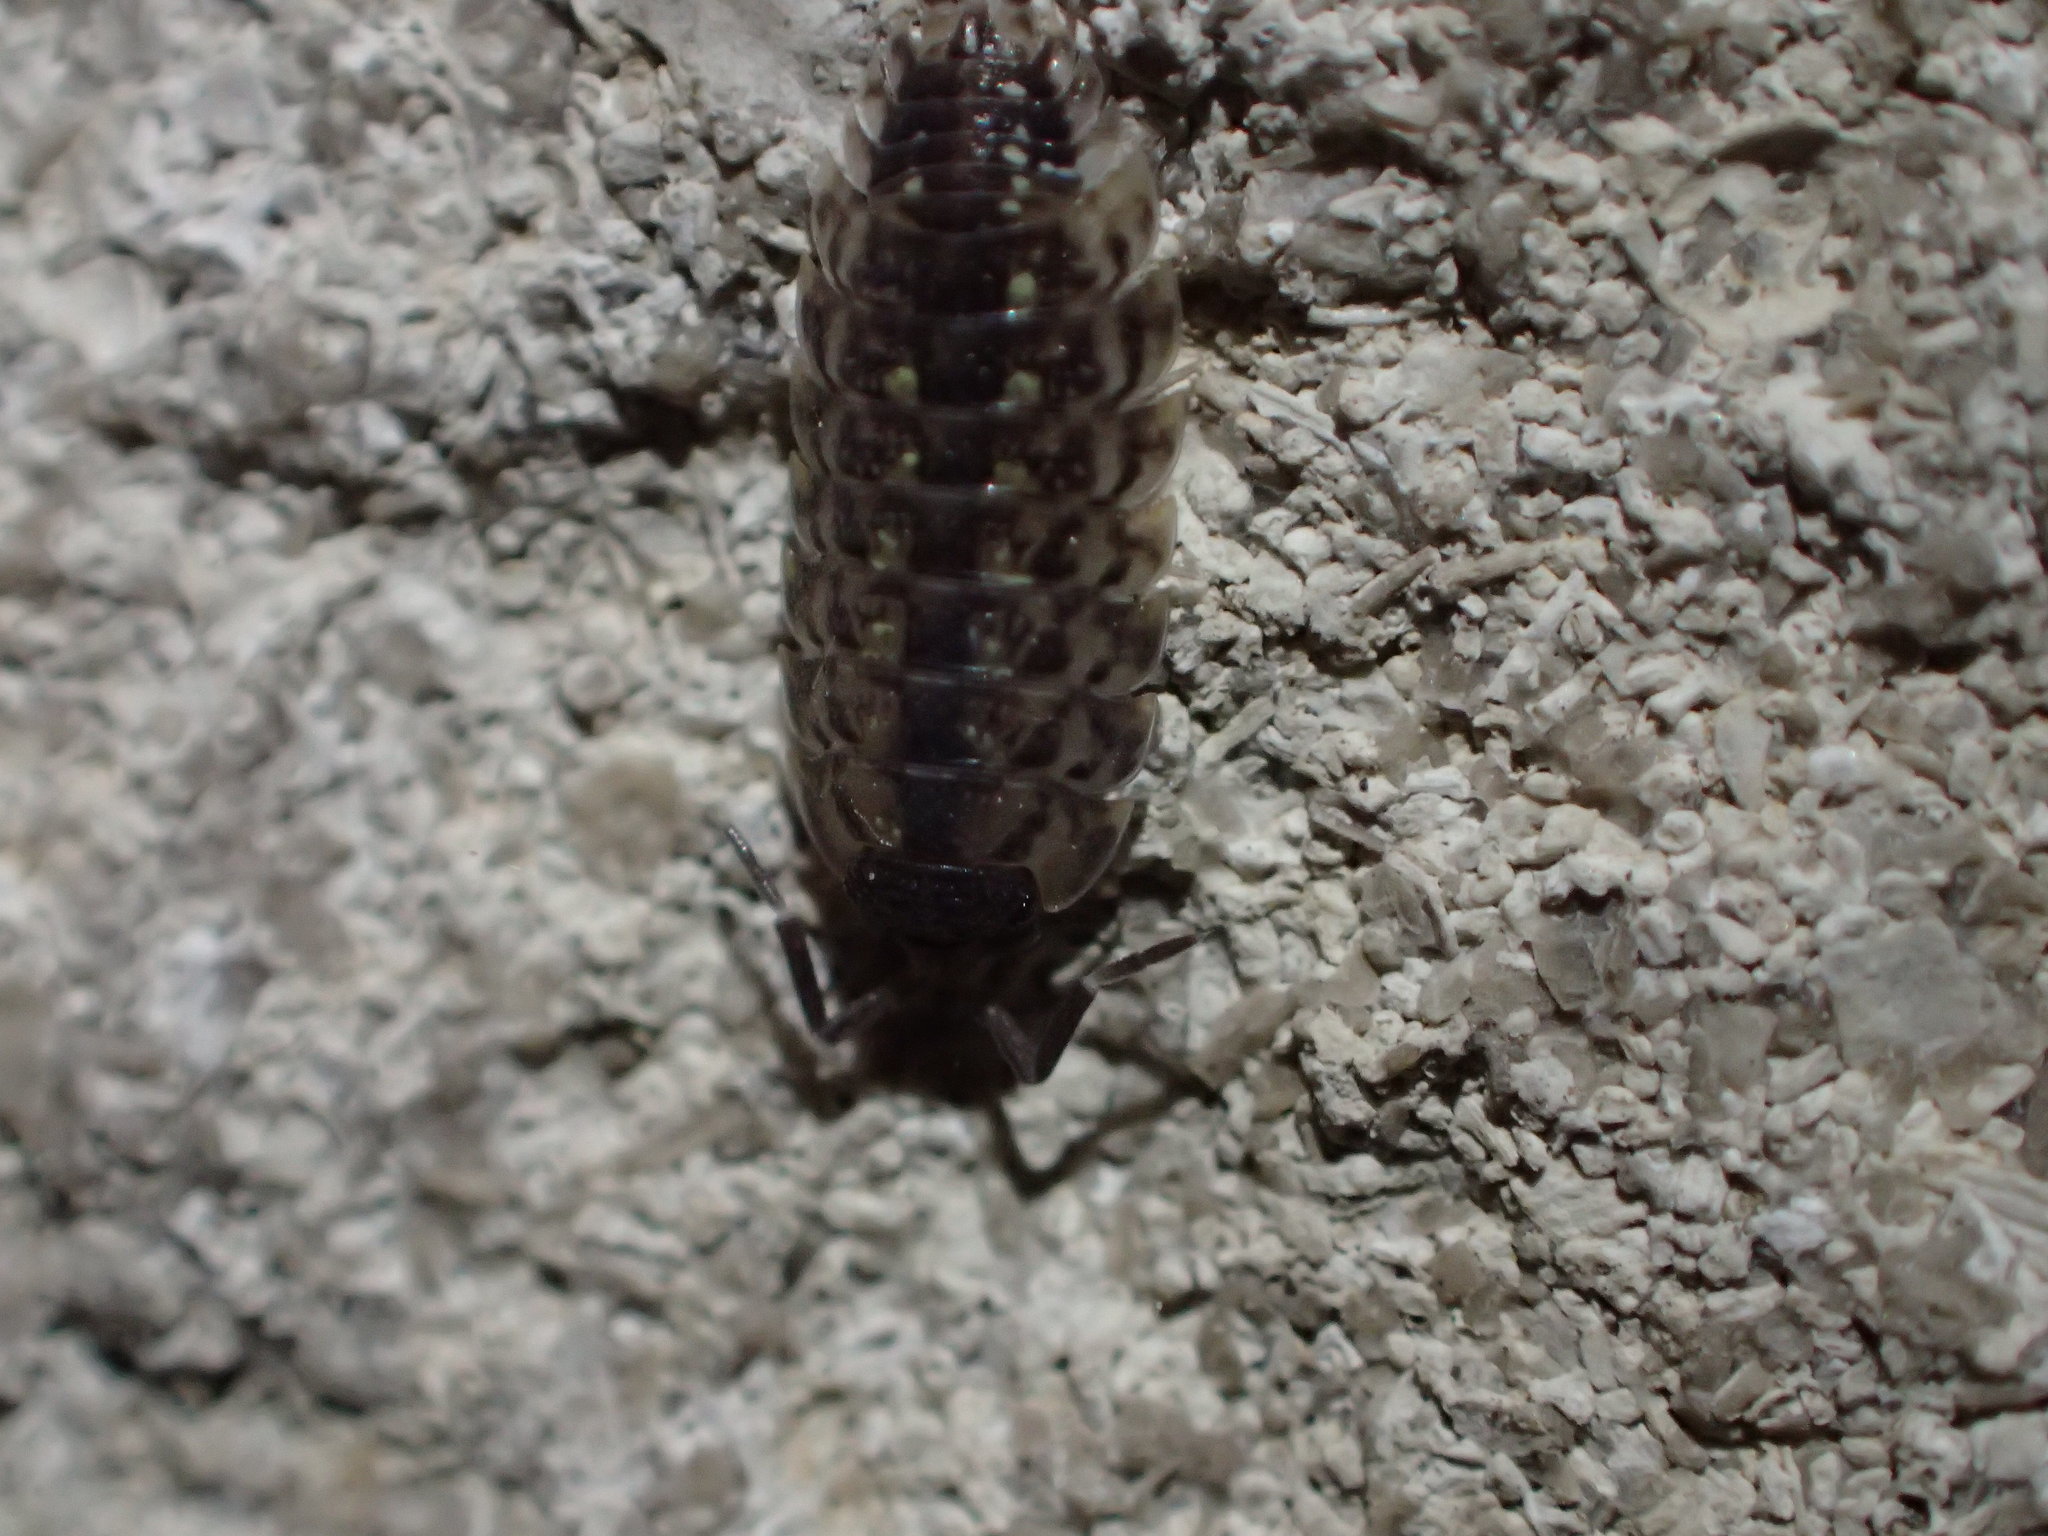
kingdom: Animalia
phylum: Arthropoda
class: Malacostraca
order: Isopoda
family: Porcellionidae
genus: Porcellio
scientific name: Porcellio spinicornis
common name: Painted woodlouse
